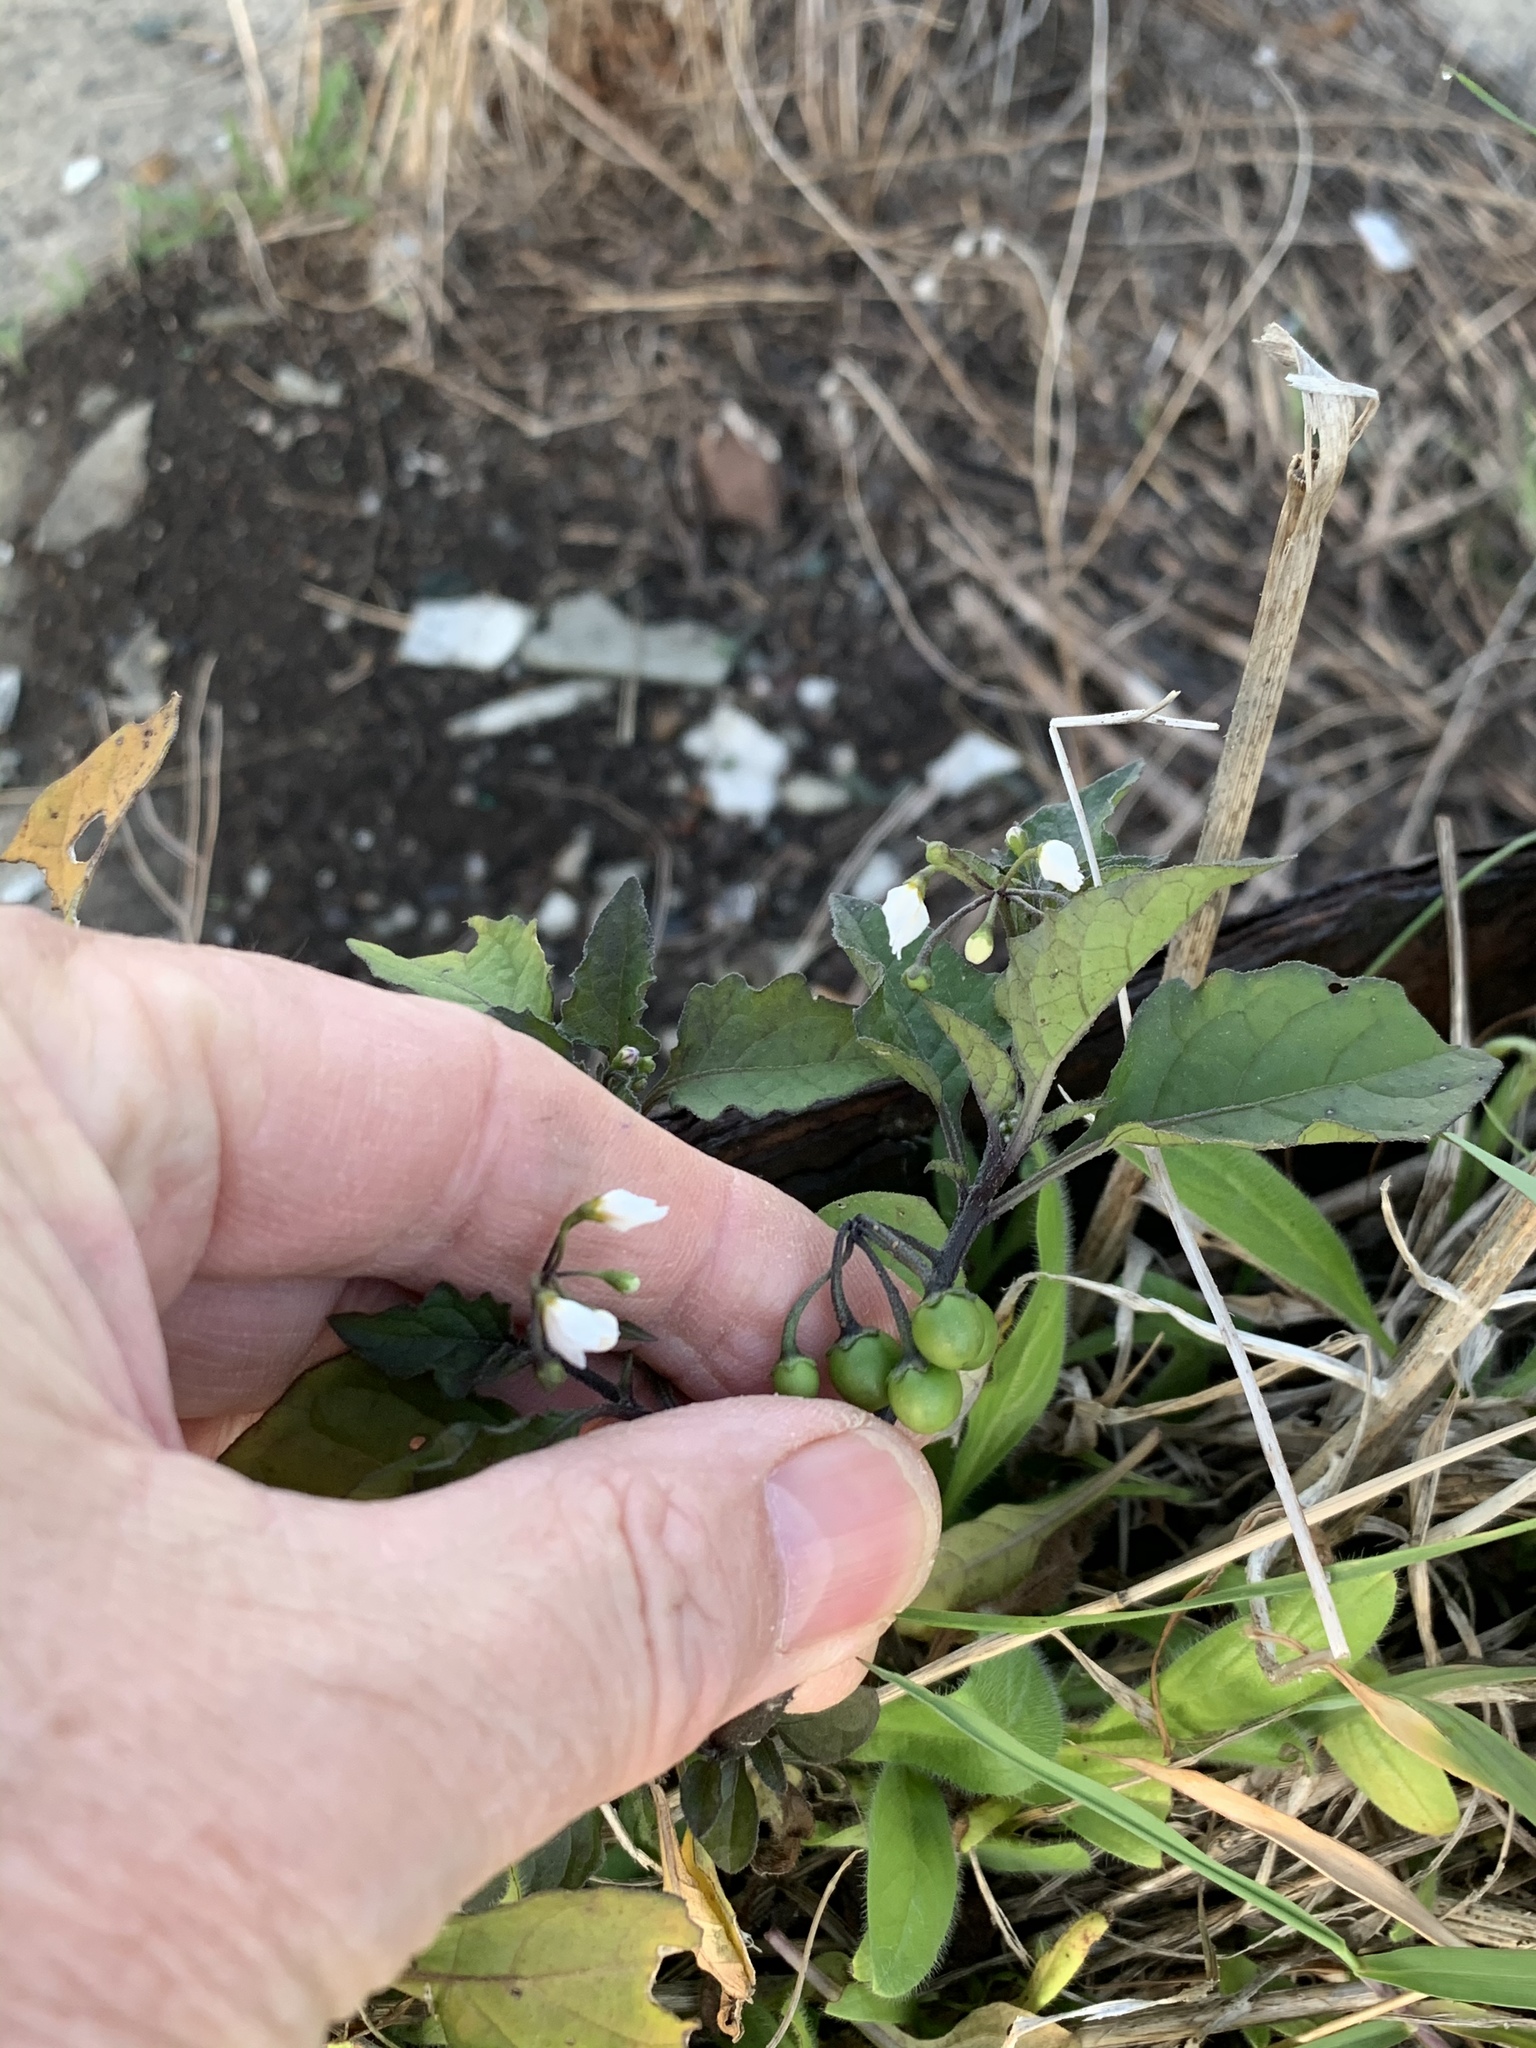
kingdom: Plantae
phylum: Tracheophyta
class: Magnoliopsida
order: Solanales
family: Solanaceae
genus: Solanum
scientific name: Solanum nigrum
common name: Black nightshade
